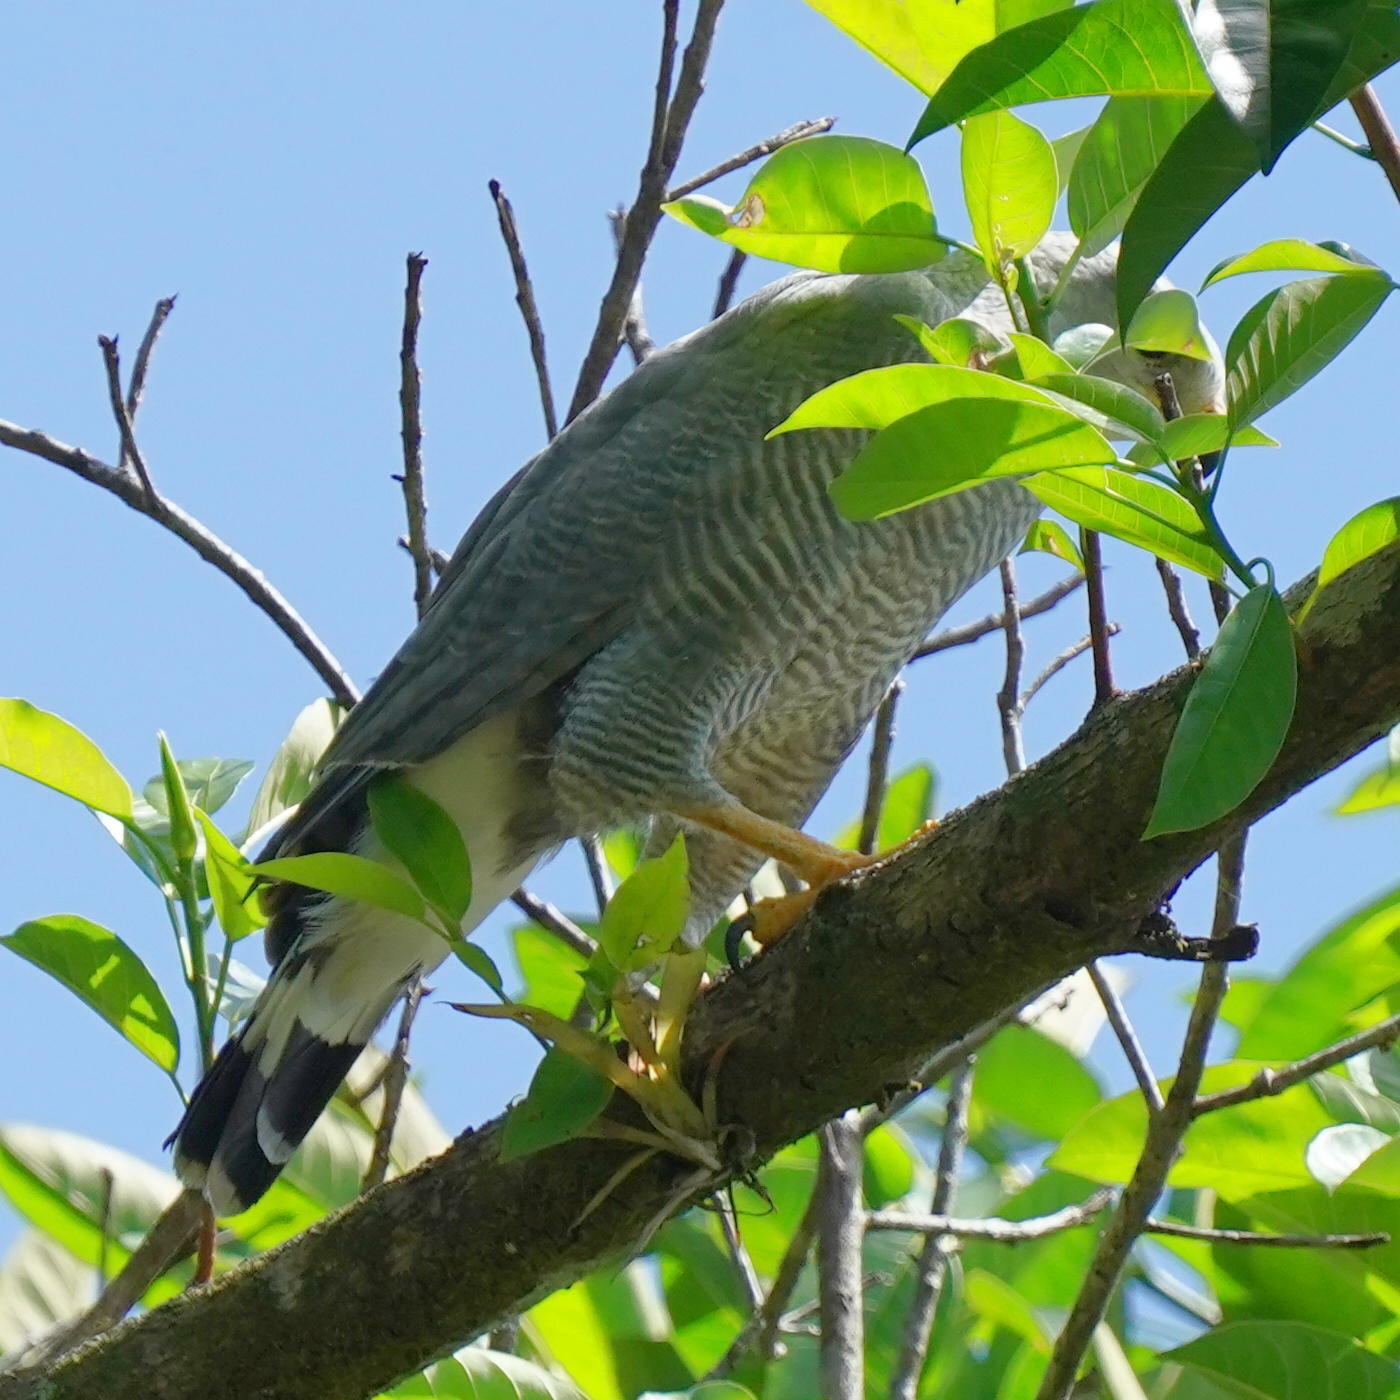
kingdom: Animalia
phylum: Chordata
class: Aves
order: Accipitriformes
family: Accipitridae
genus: Buteo
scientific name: Buteo nitidus
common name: Grey-lined hawk
